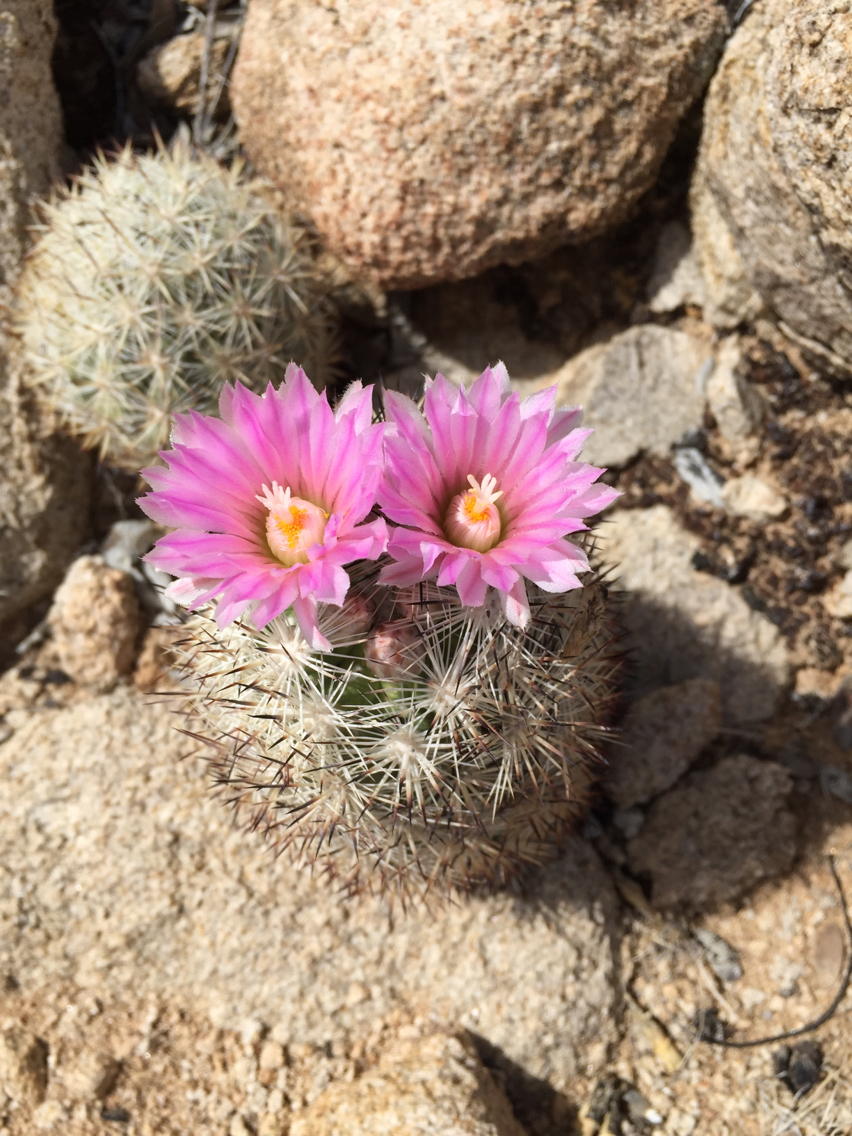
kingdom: Plantae
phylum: Tracheophyta
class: Magnoliopsida
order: Caryophyllales
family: Cactaceae
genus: Pelecyphora
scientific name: Pelecyphora alversonii
